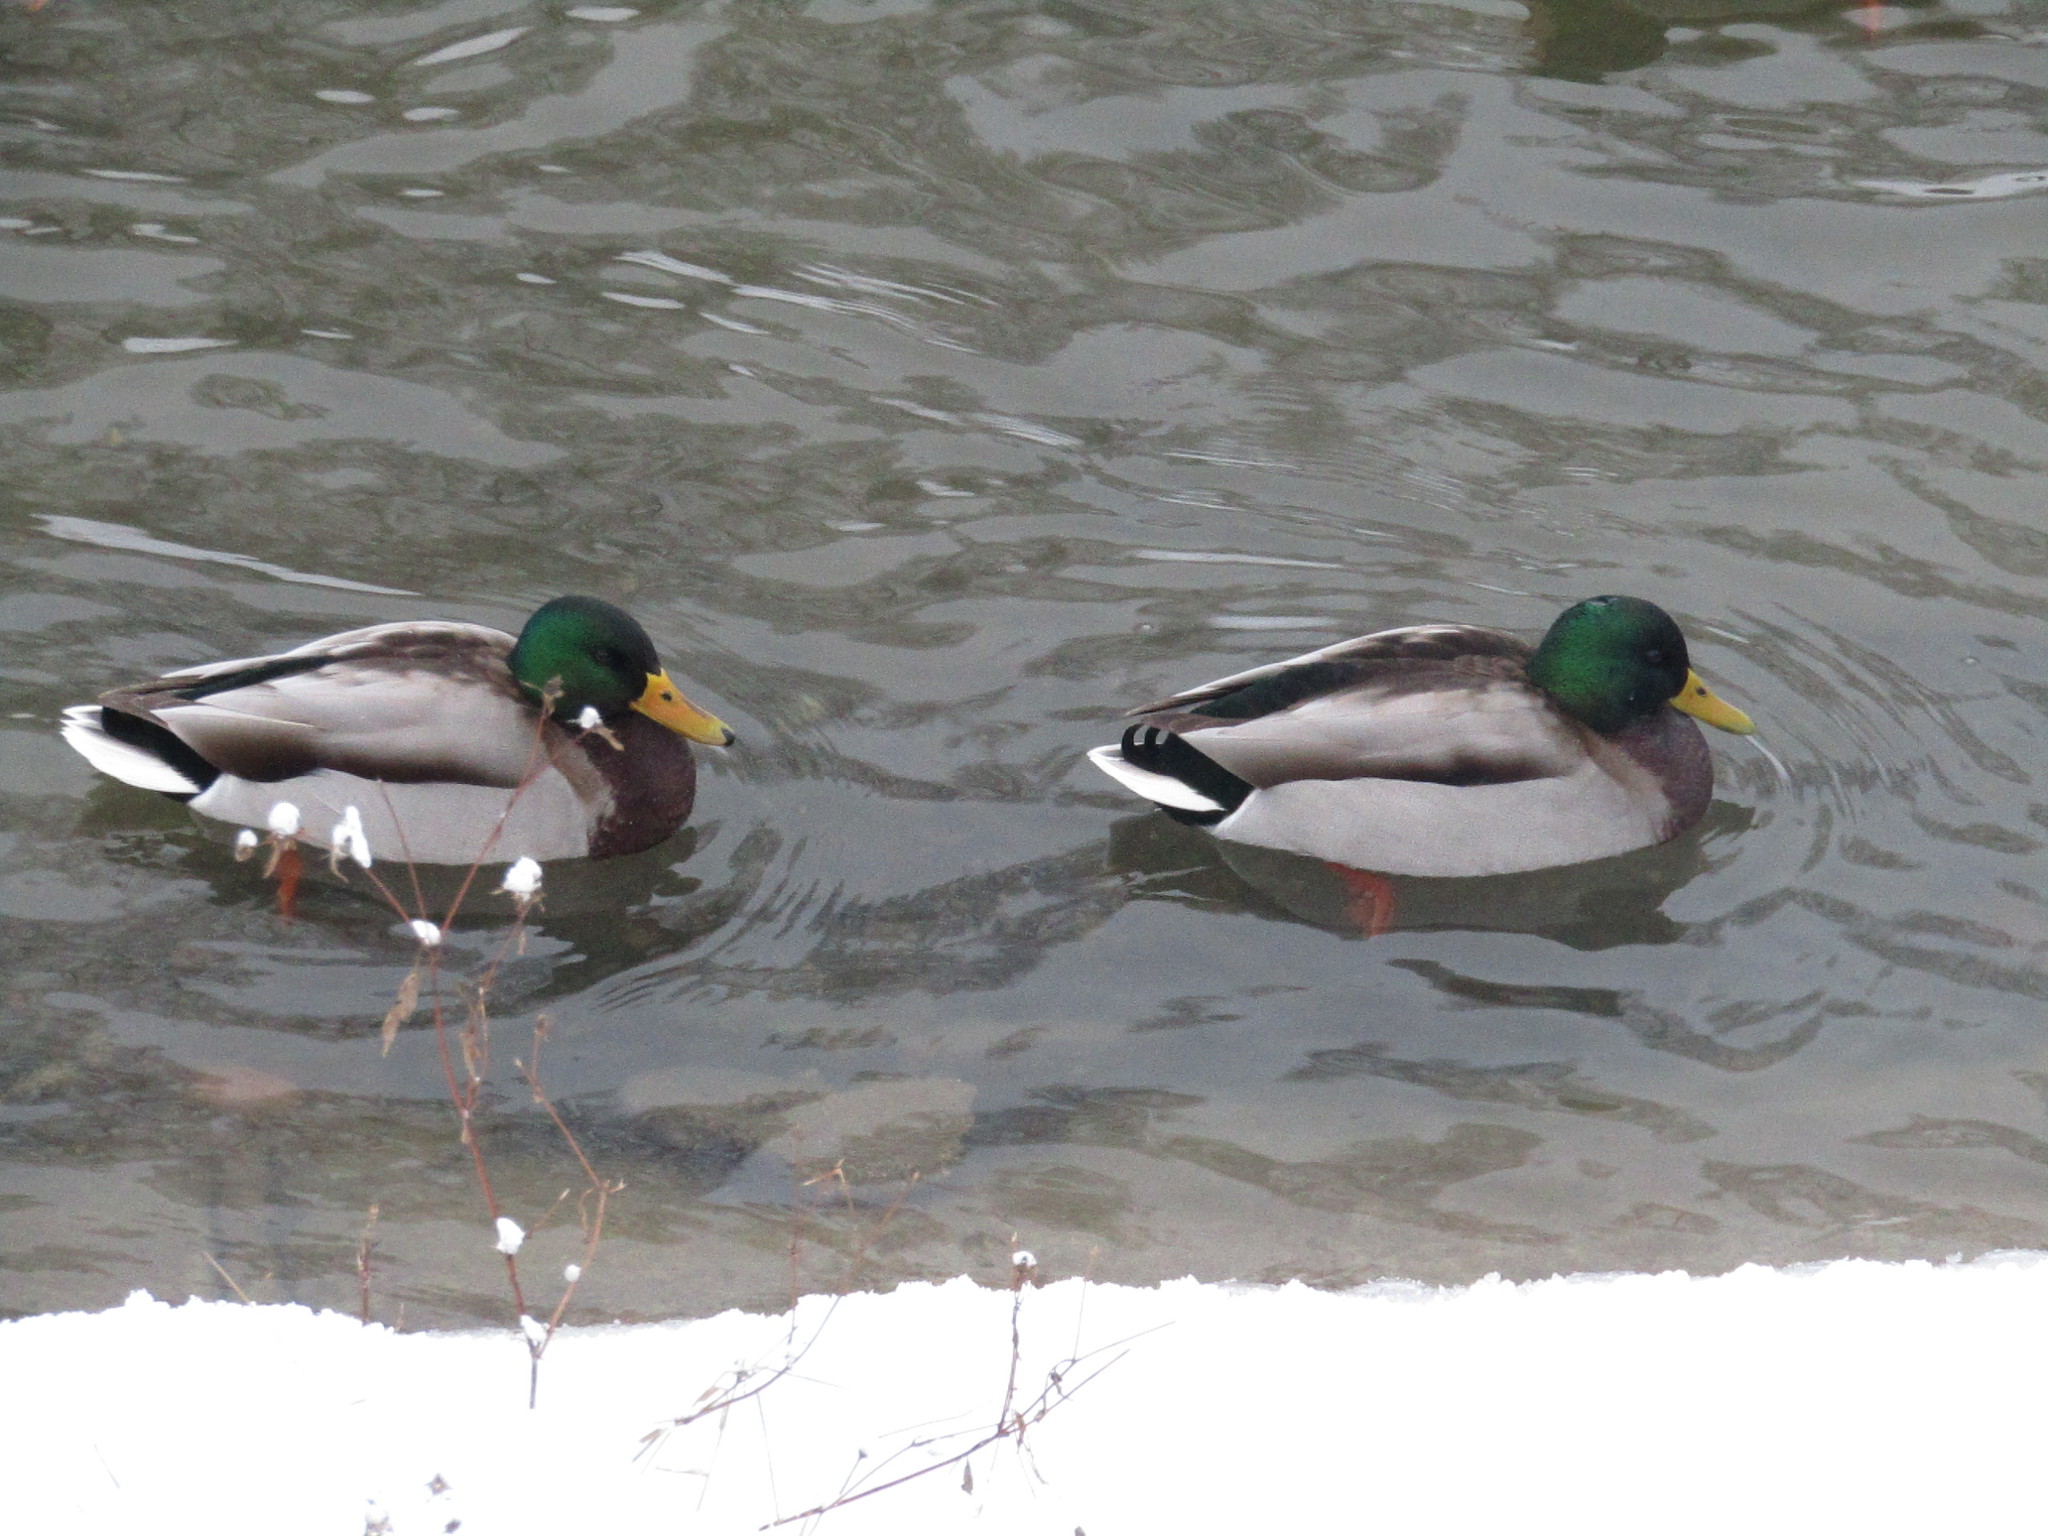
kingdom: Animalia
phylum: Chordata
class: Aves
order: Anseriformes
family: Anatidae
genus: Anas
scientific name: Anas platyrhynchos
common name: Mallard
